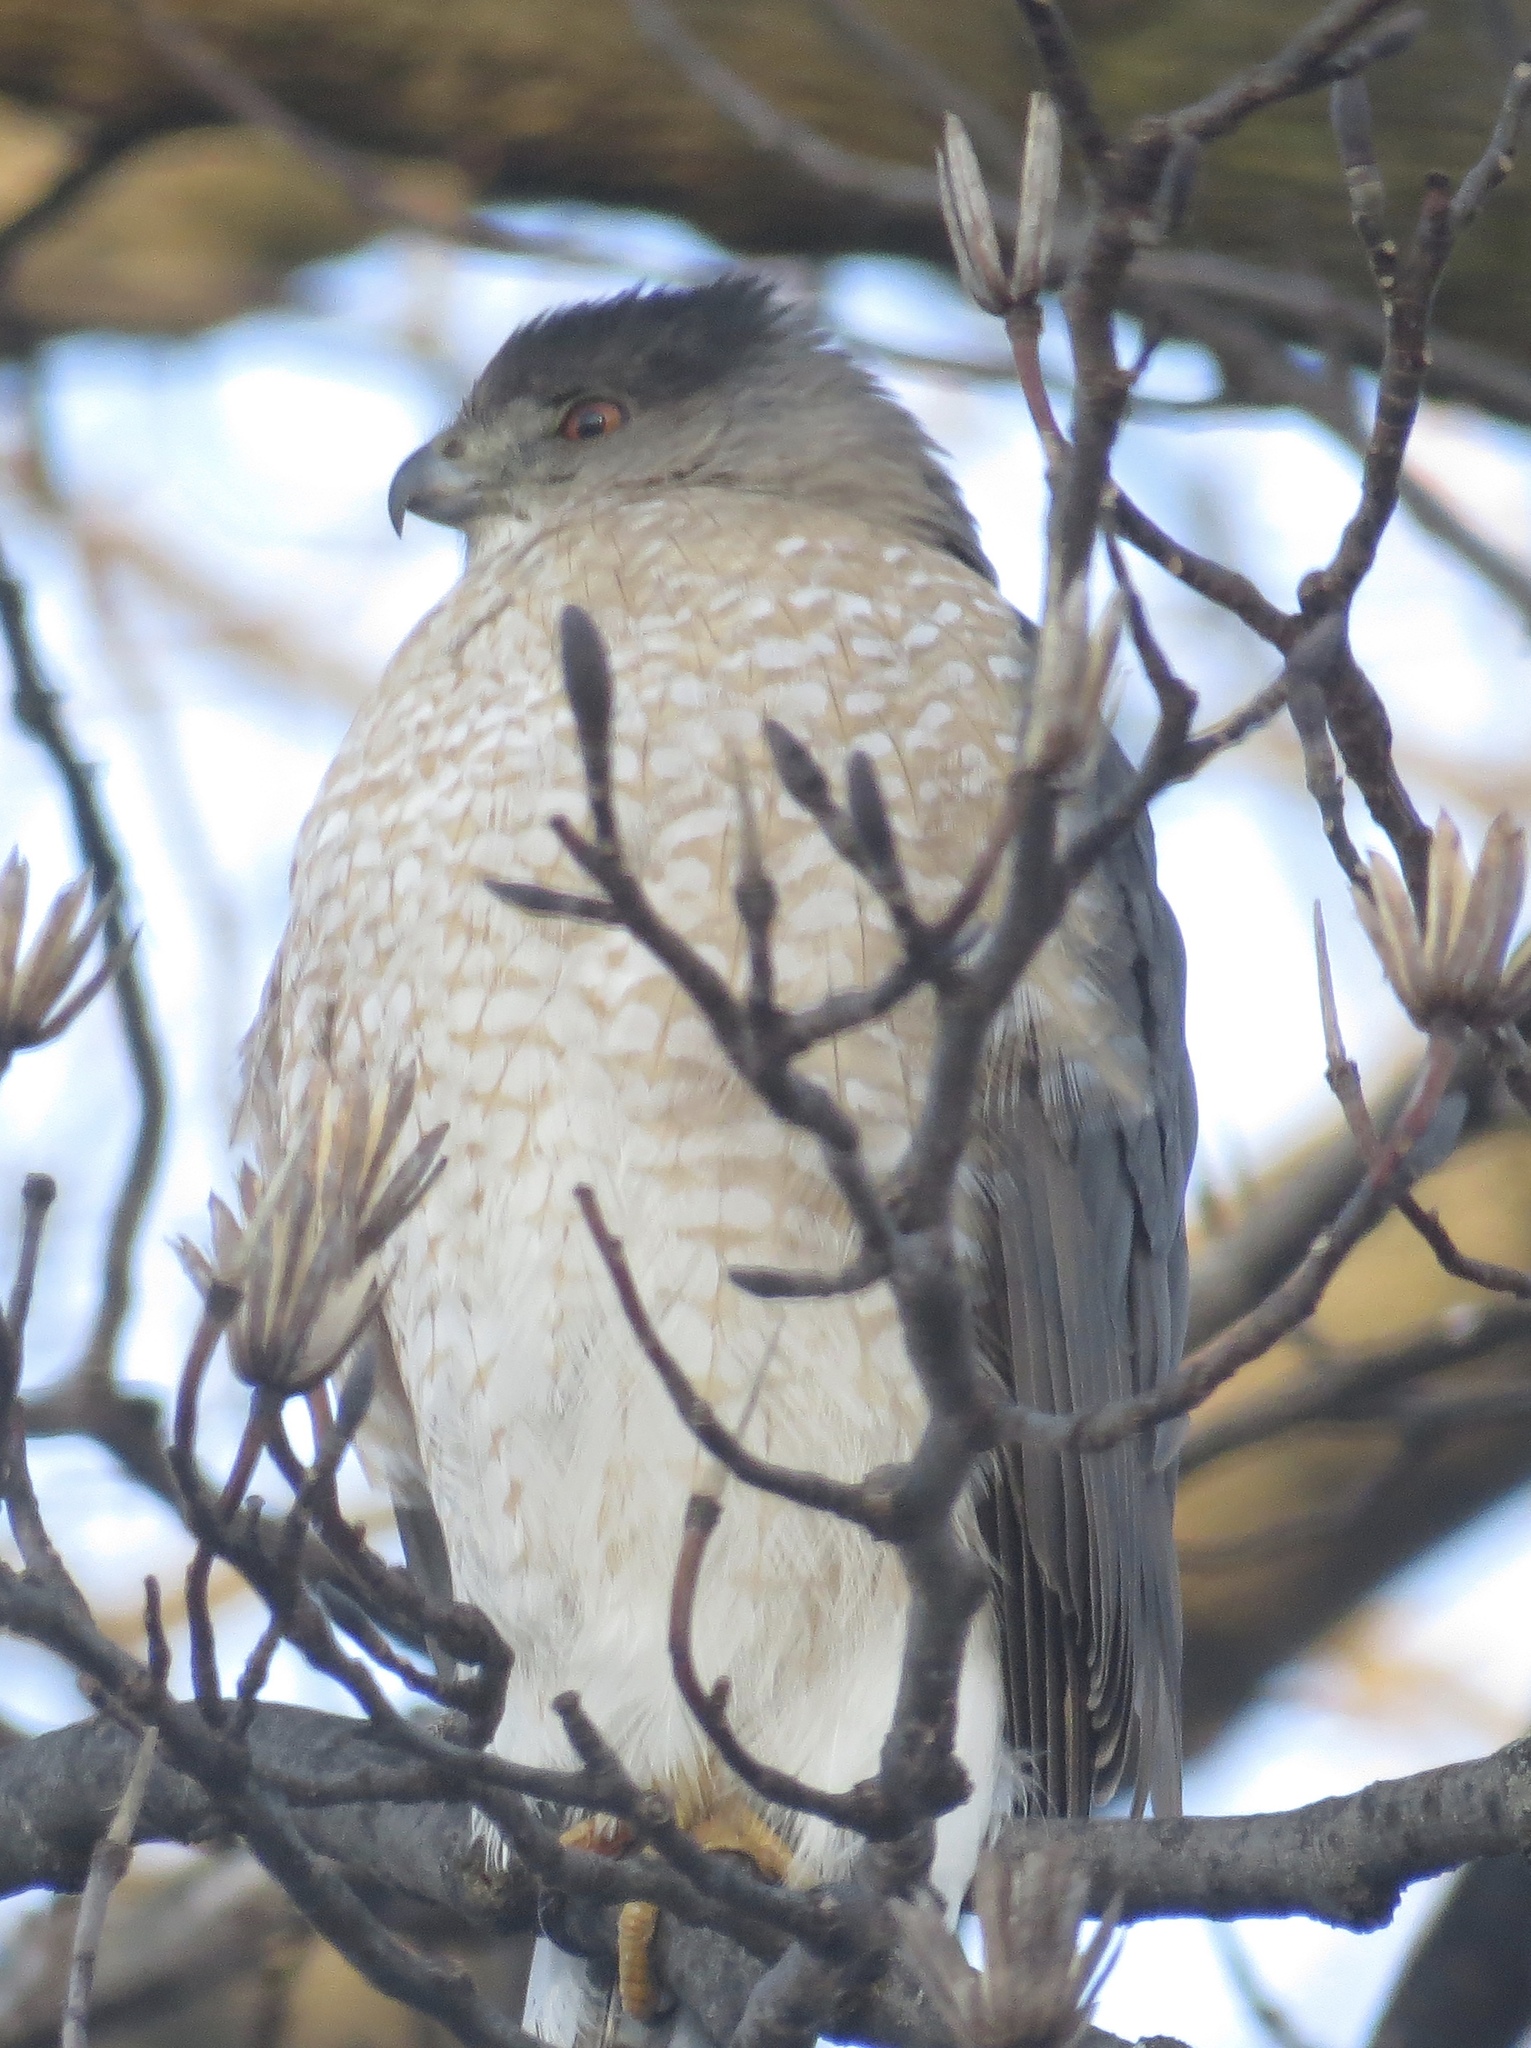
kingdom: Animalia
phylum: Chordata
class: Aves
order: Accipitriformes
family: Accipitridae
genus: Accipiter
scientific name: Accipiter cooperii
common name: Cooper's hawk
